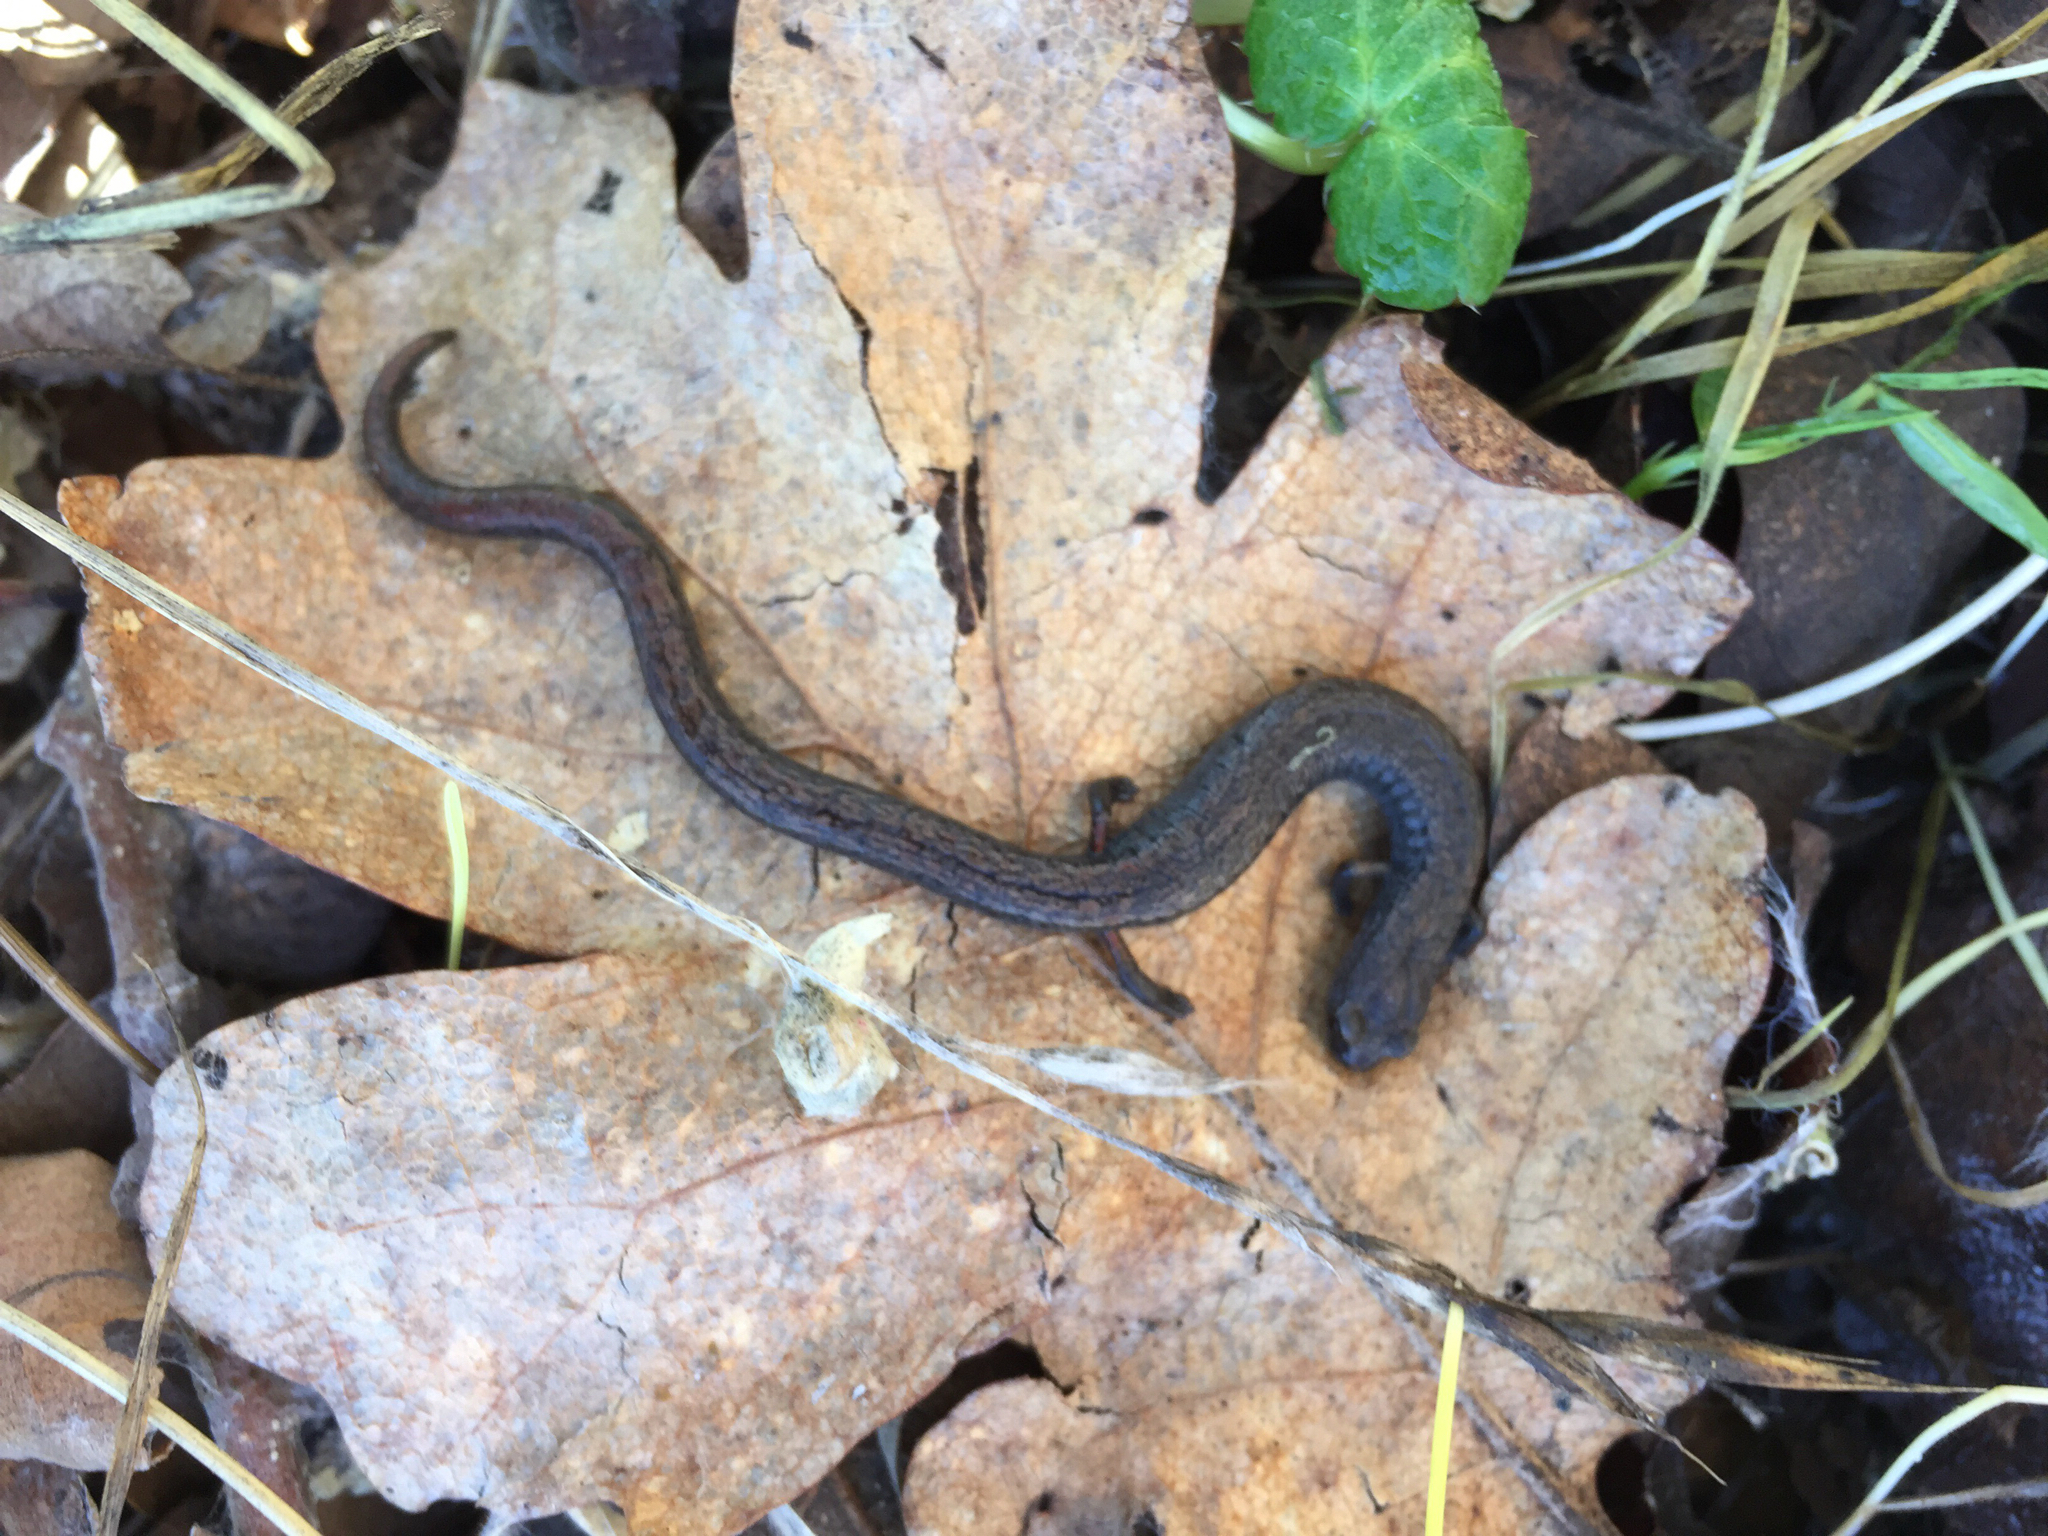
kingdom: Animalia
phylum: Chordata
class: Amphibia
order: Caudata
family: Plethodontidae
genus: Batrachoseps
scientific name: Batrachoseps attenuatus
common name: California slender salamander
